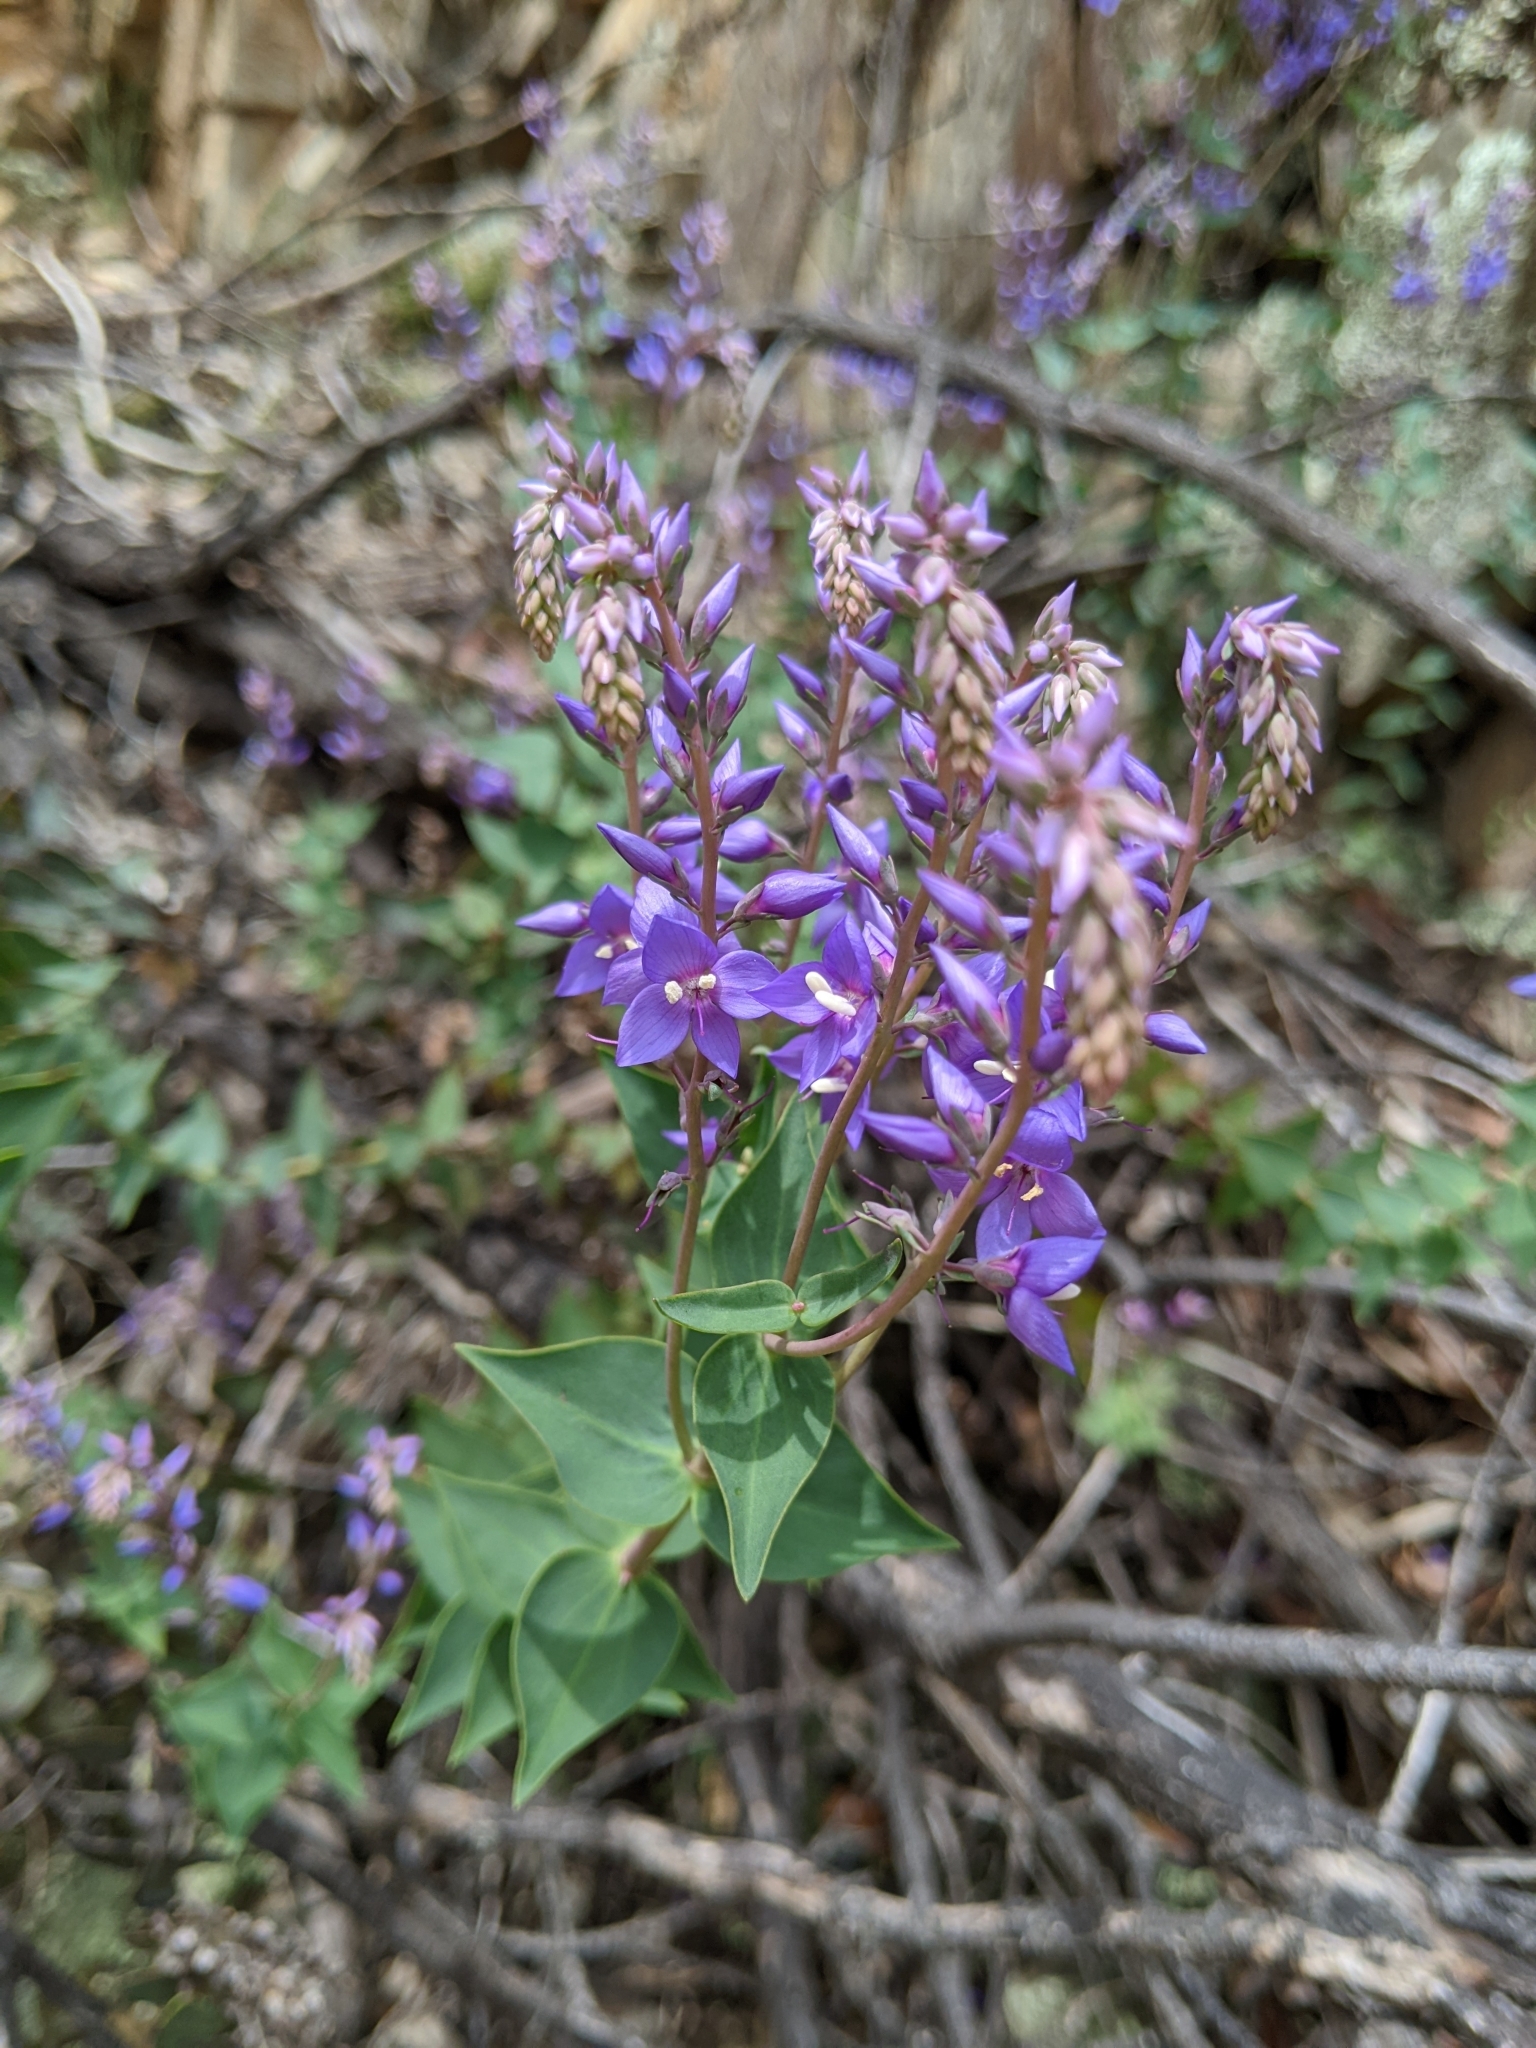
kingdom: Plantae
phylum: Tracheophyta
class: Magnoliopsida
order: Lamiales
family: Plantaginaceae
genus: Veronica
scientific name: Veronica perfoliata
